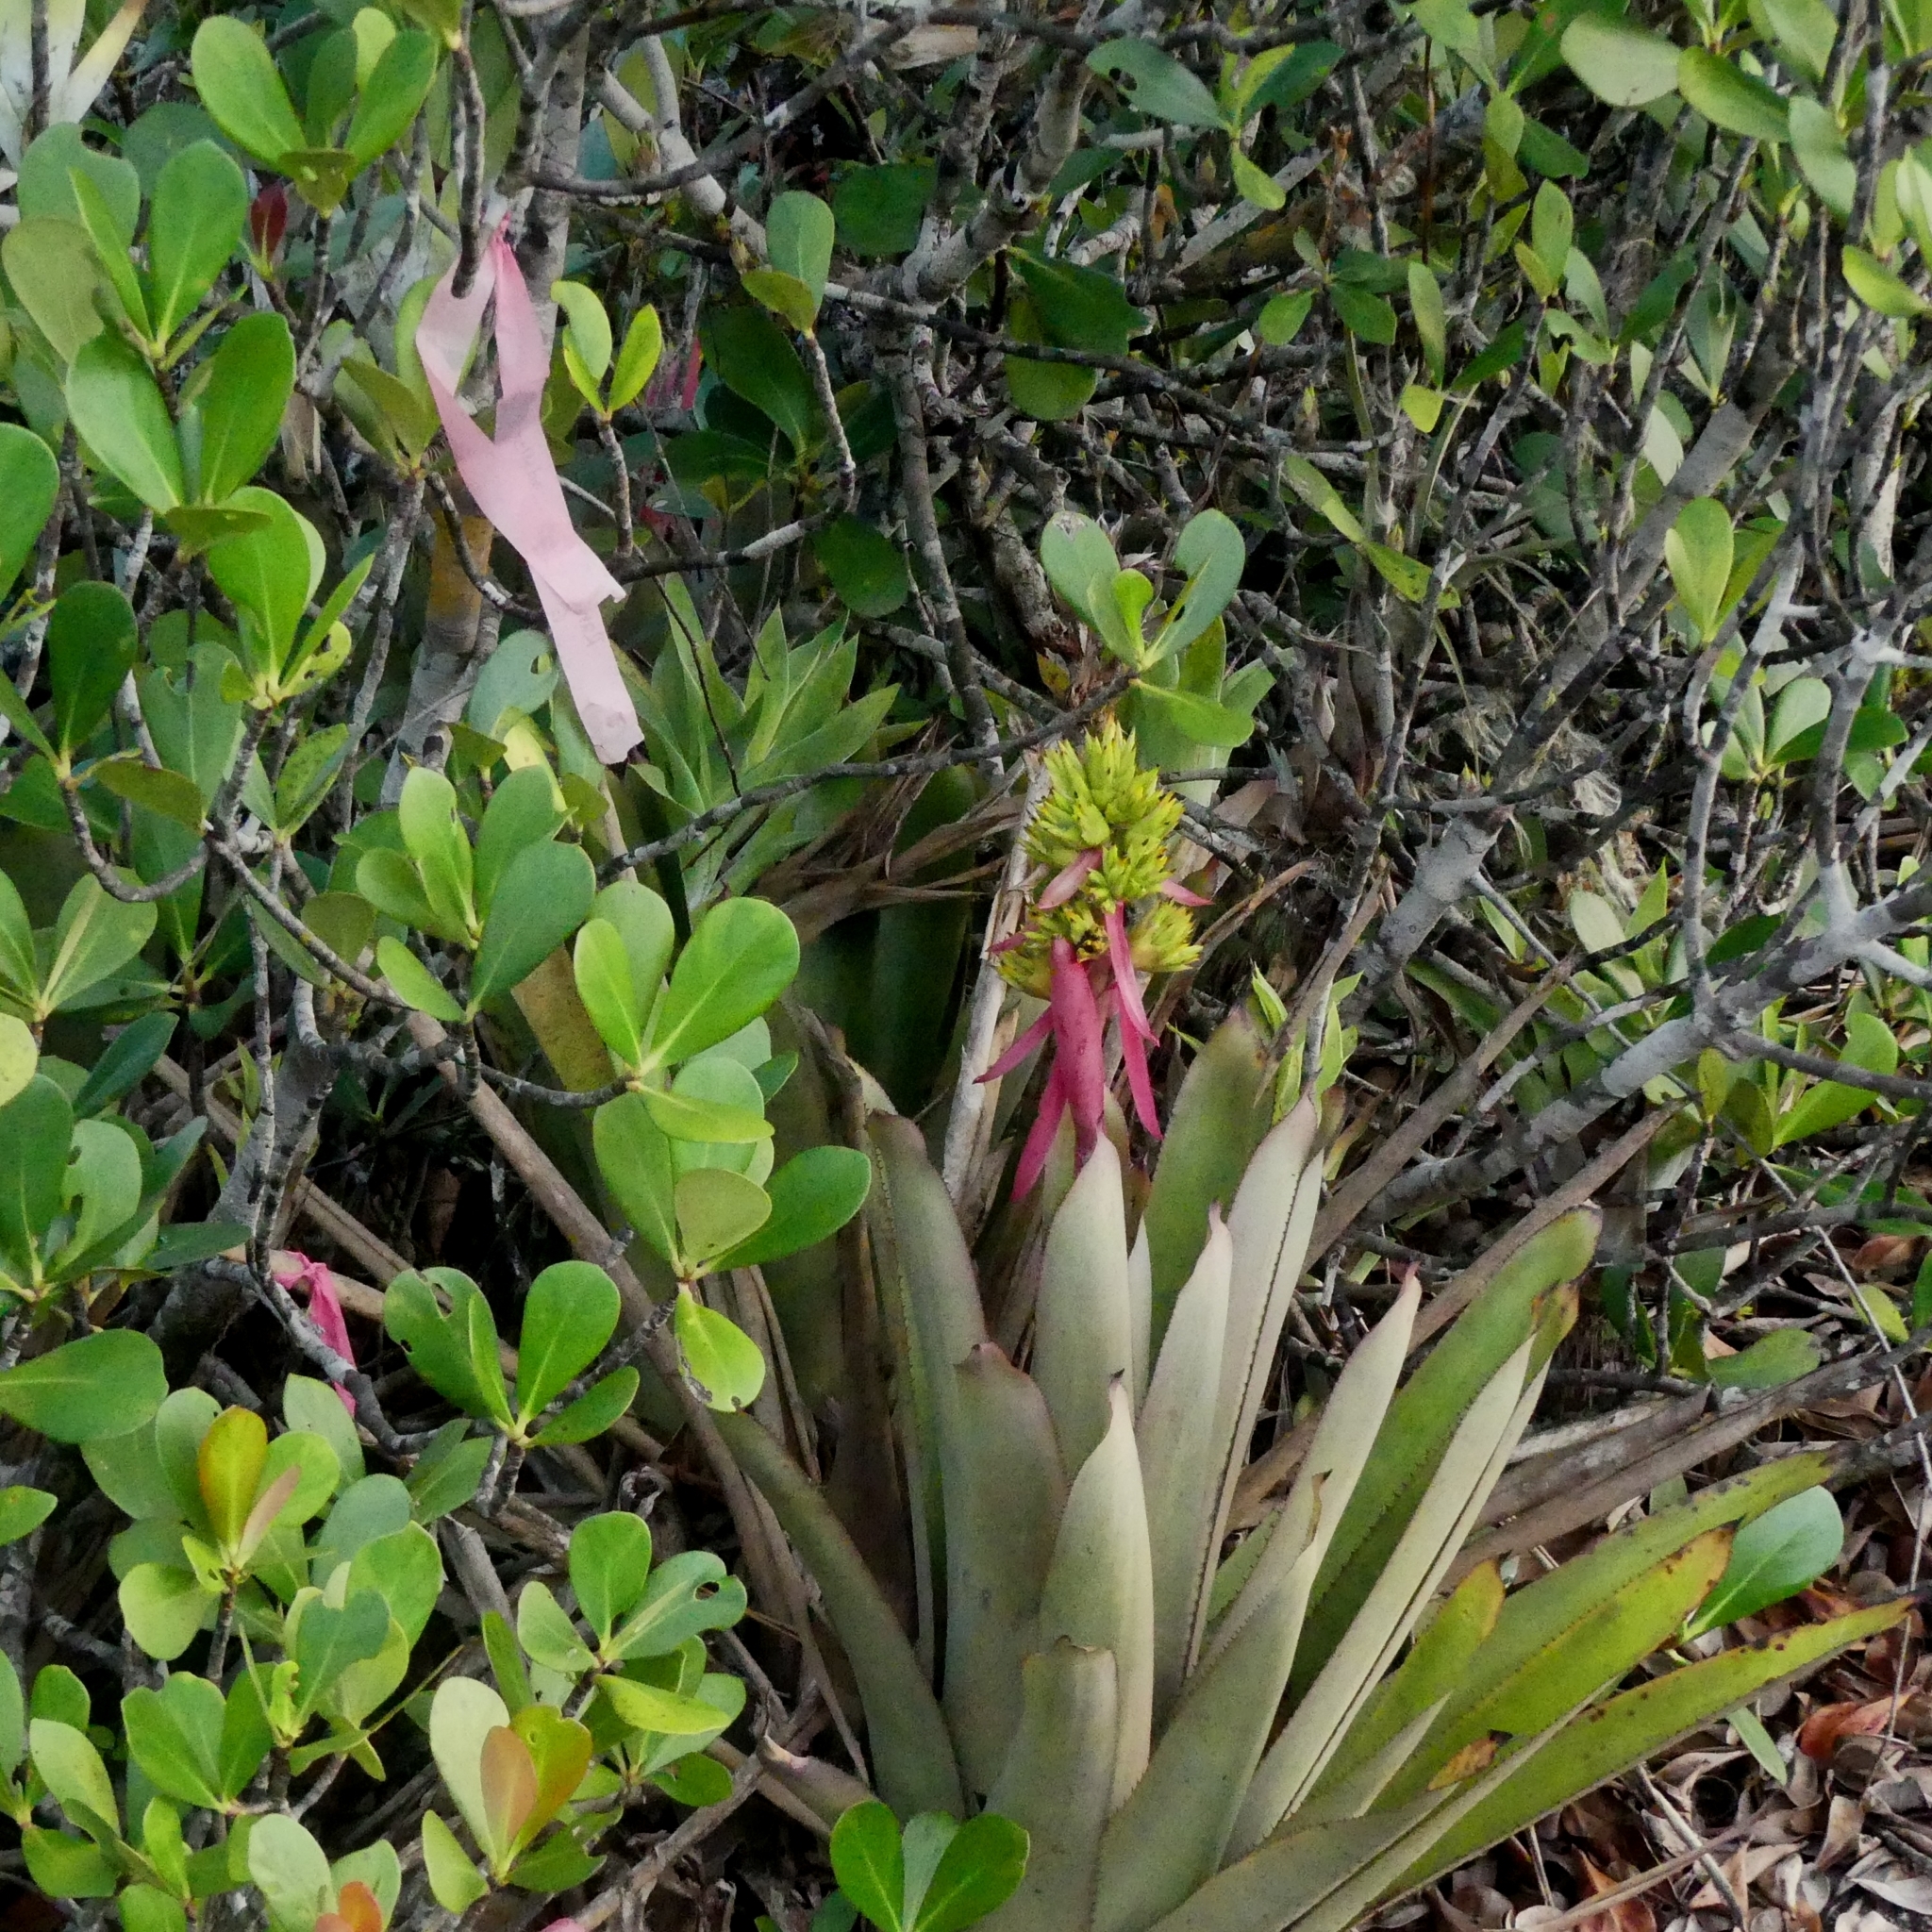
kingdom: Plantae
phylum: Tracheophyta
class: Liliopsida
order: Poales
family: Bromeliaceae
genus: Aechmea
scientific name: Aechmea aquilega
